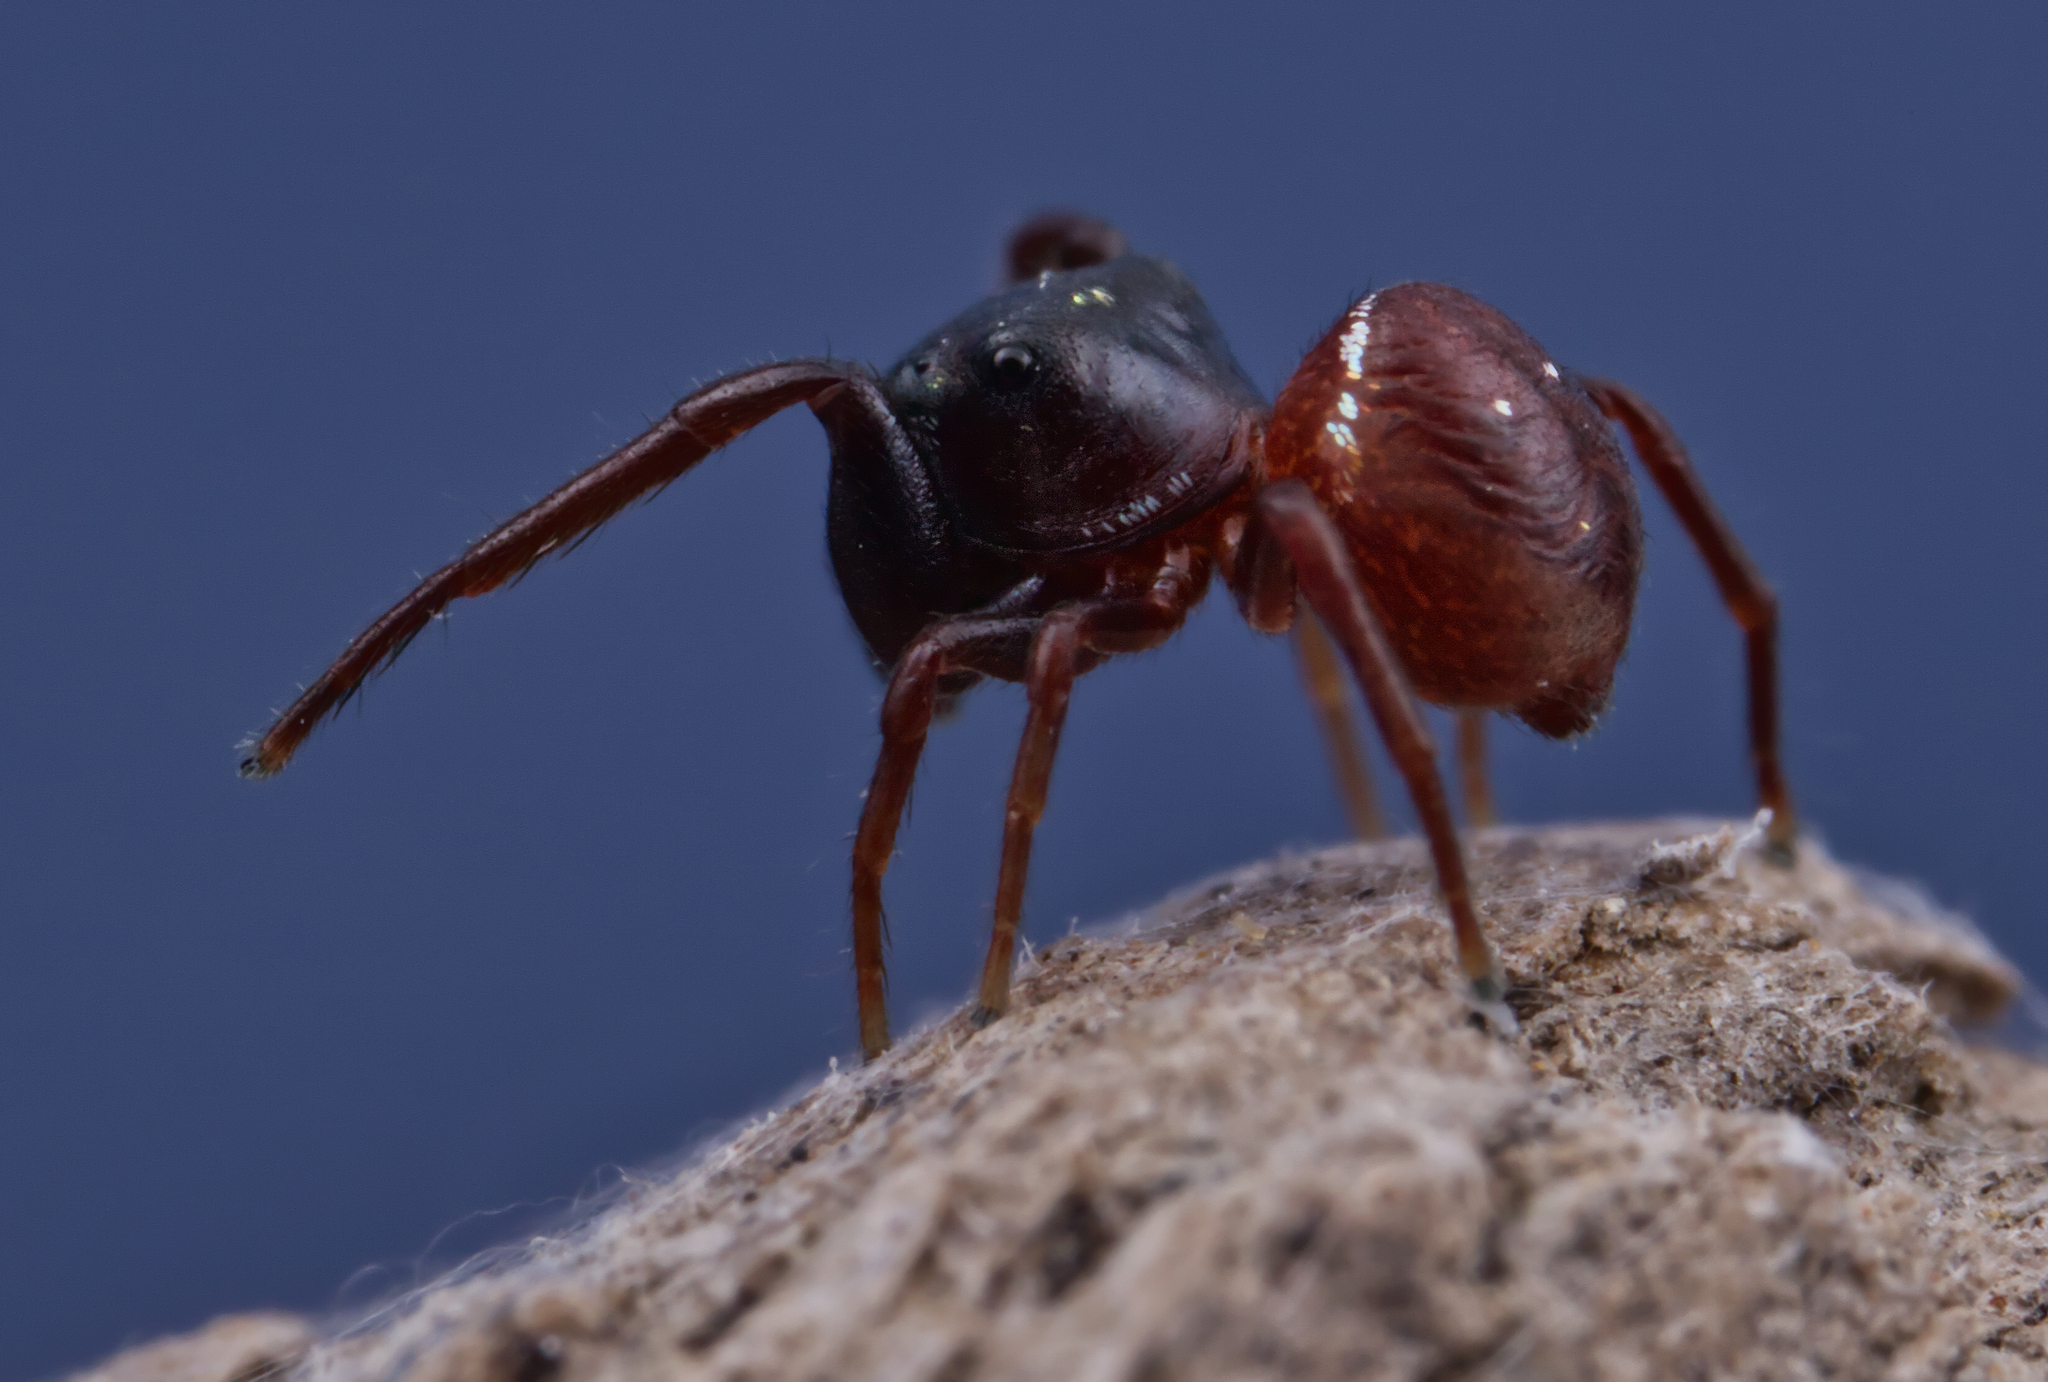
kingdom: Animalia
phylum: Arthropoda
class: Arachnida
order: Araneae
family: Salticidae
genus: Zygoballus
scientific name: Zygoballus sexpunctatus
